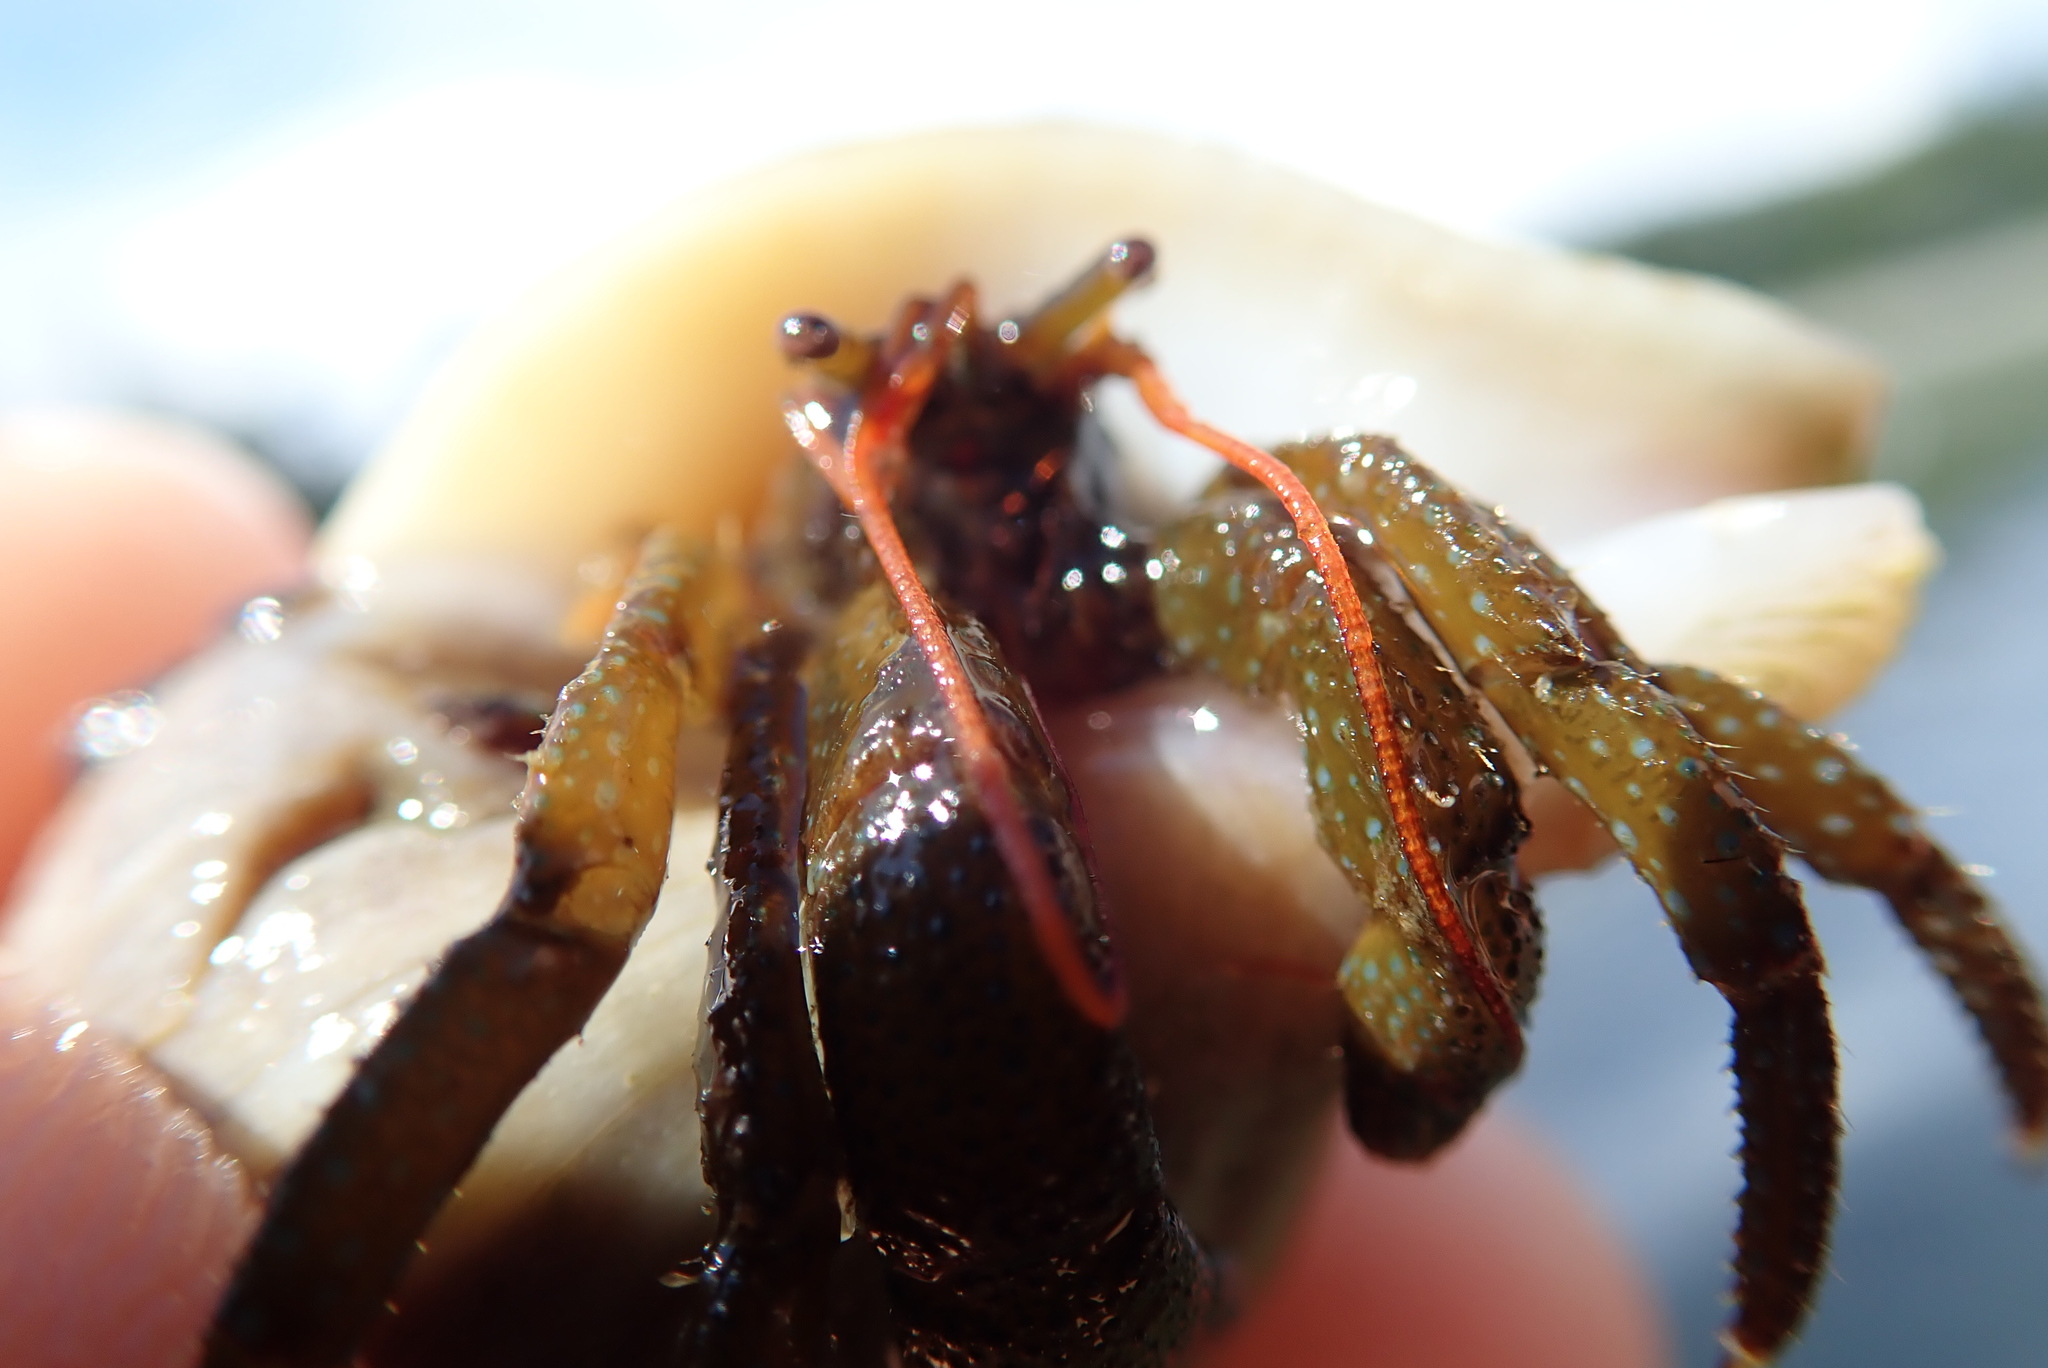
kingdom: Animalia
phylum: Arthropoda
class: Malacostraca
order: Decapoda
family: Paguridae
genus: Pagurus
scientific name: Pagurus granosimanus
